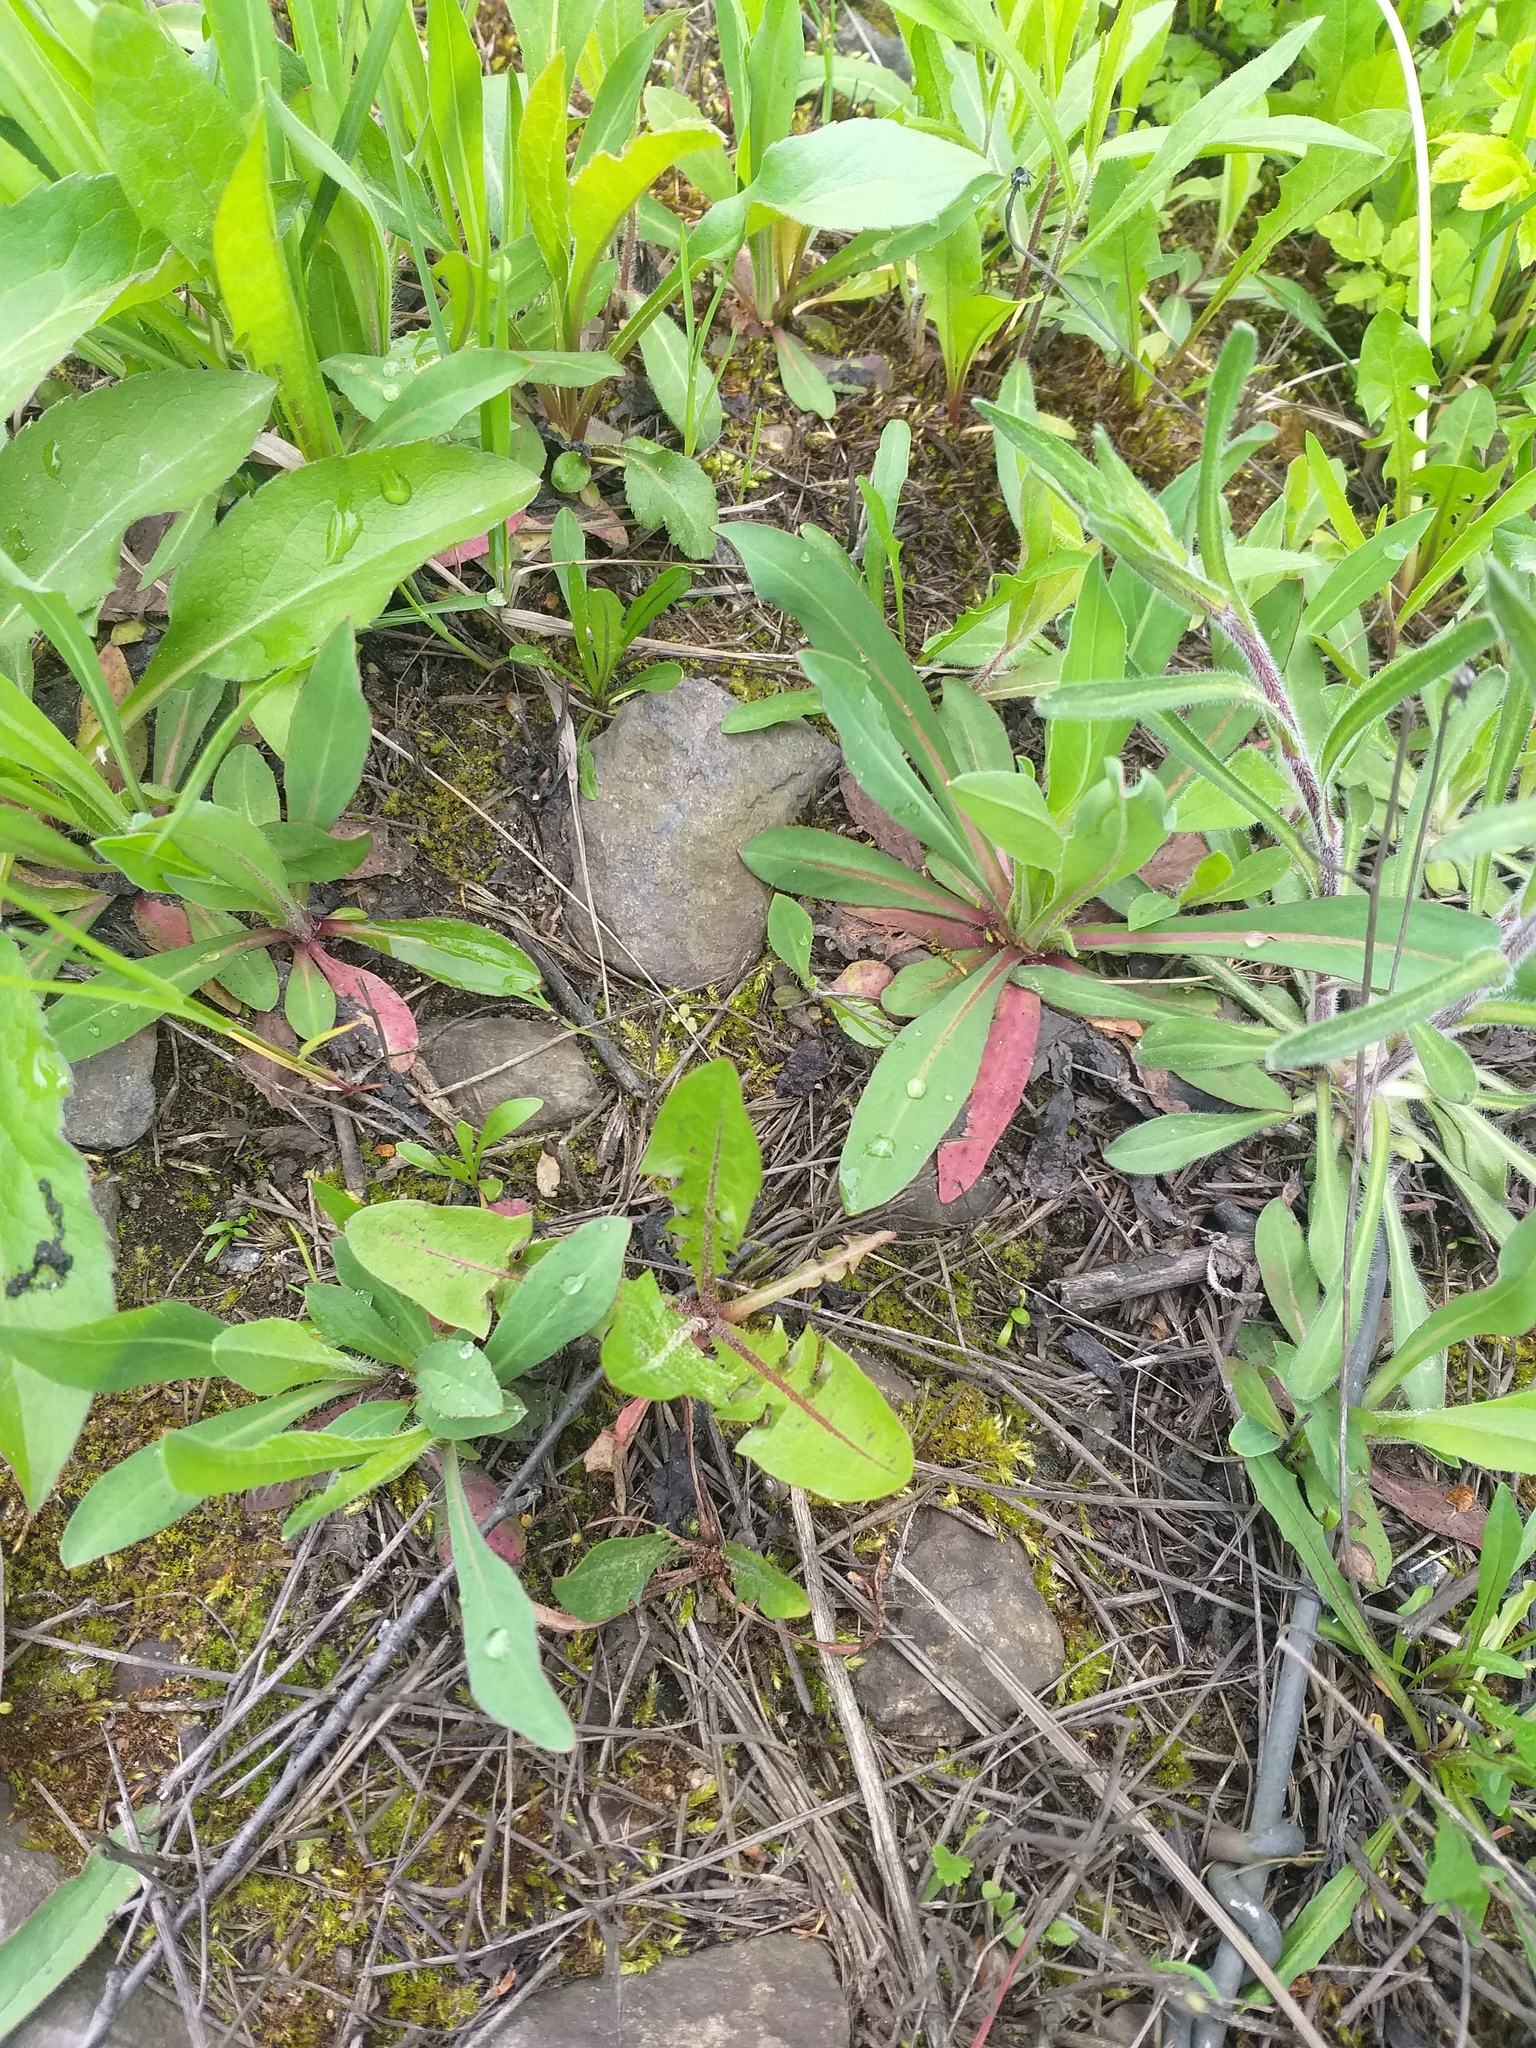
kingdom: Plantae
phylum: Tracheophyta
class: Magnoliopsida
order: Asterales
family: Asteraceae
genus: Pilosella
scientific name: Pilosella
